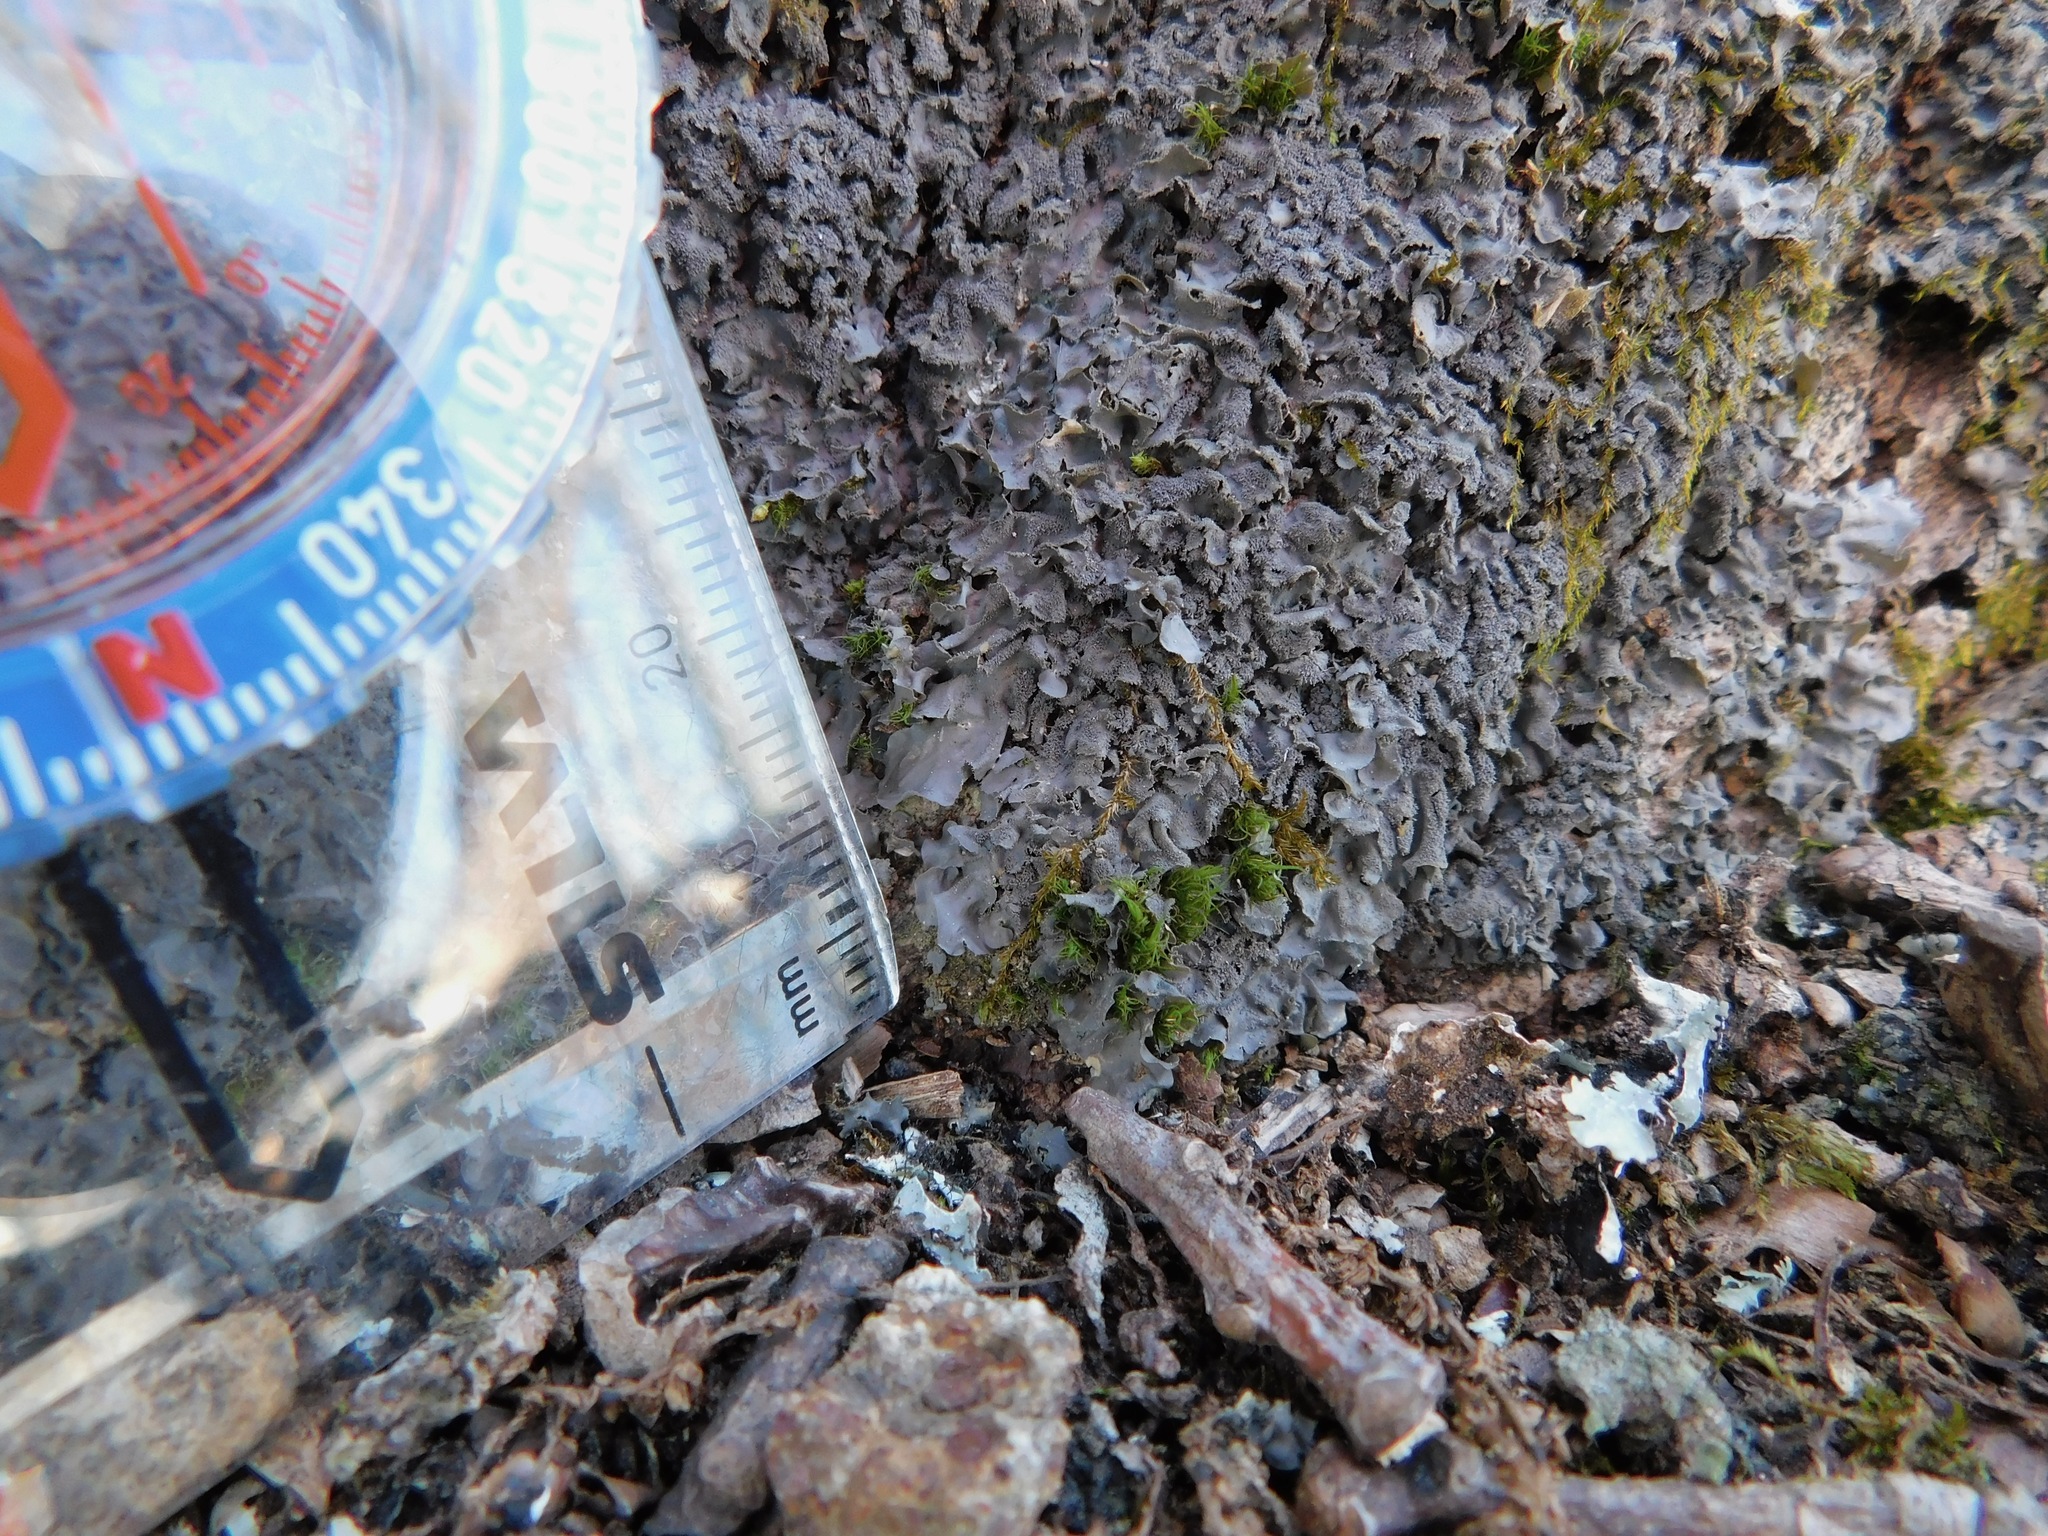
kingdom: Fungi
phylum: Ascomycota
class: Lecanoromycetes
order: Peltigerales
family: Collemataceae
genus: Leptogium
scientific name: Leptogium cyanescens
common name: Blue jellyskin
